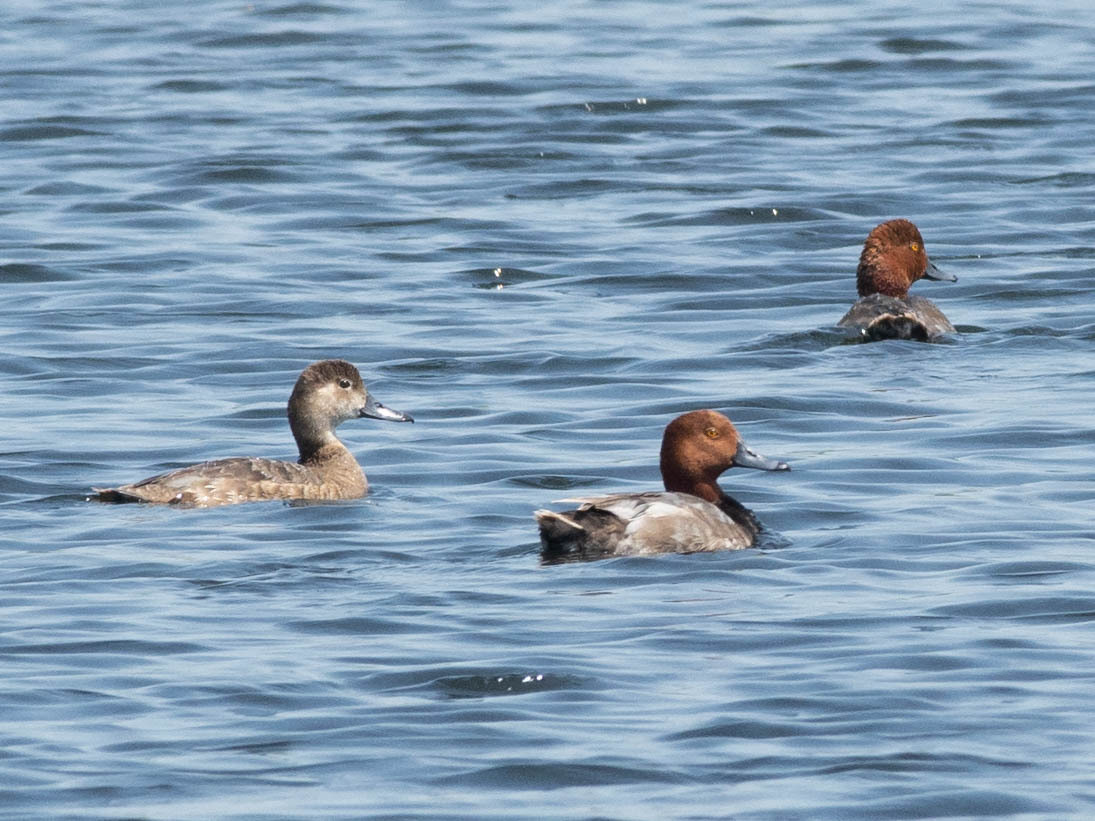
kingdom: Animalia
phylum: Chordata
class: Aves
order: Anseriformes
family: Anatidae
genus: Aythya
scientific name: Aythya americana
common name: Redhead
